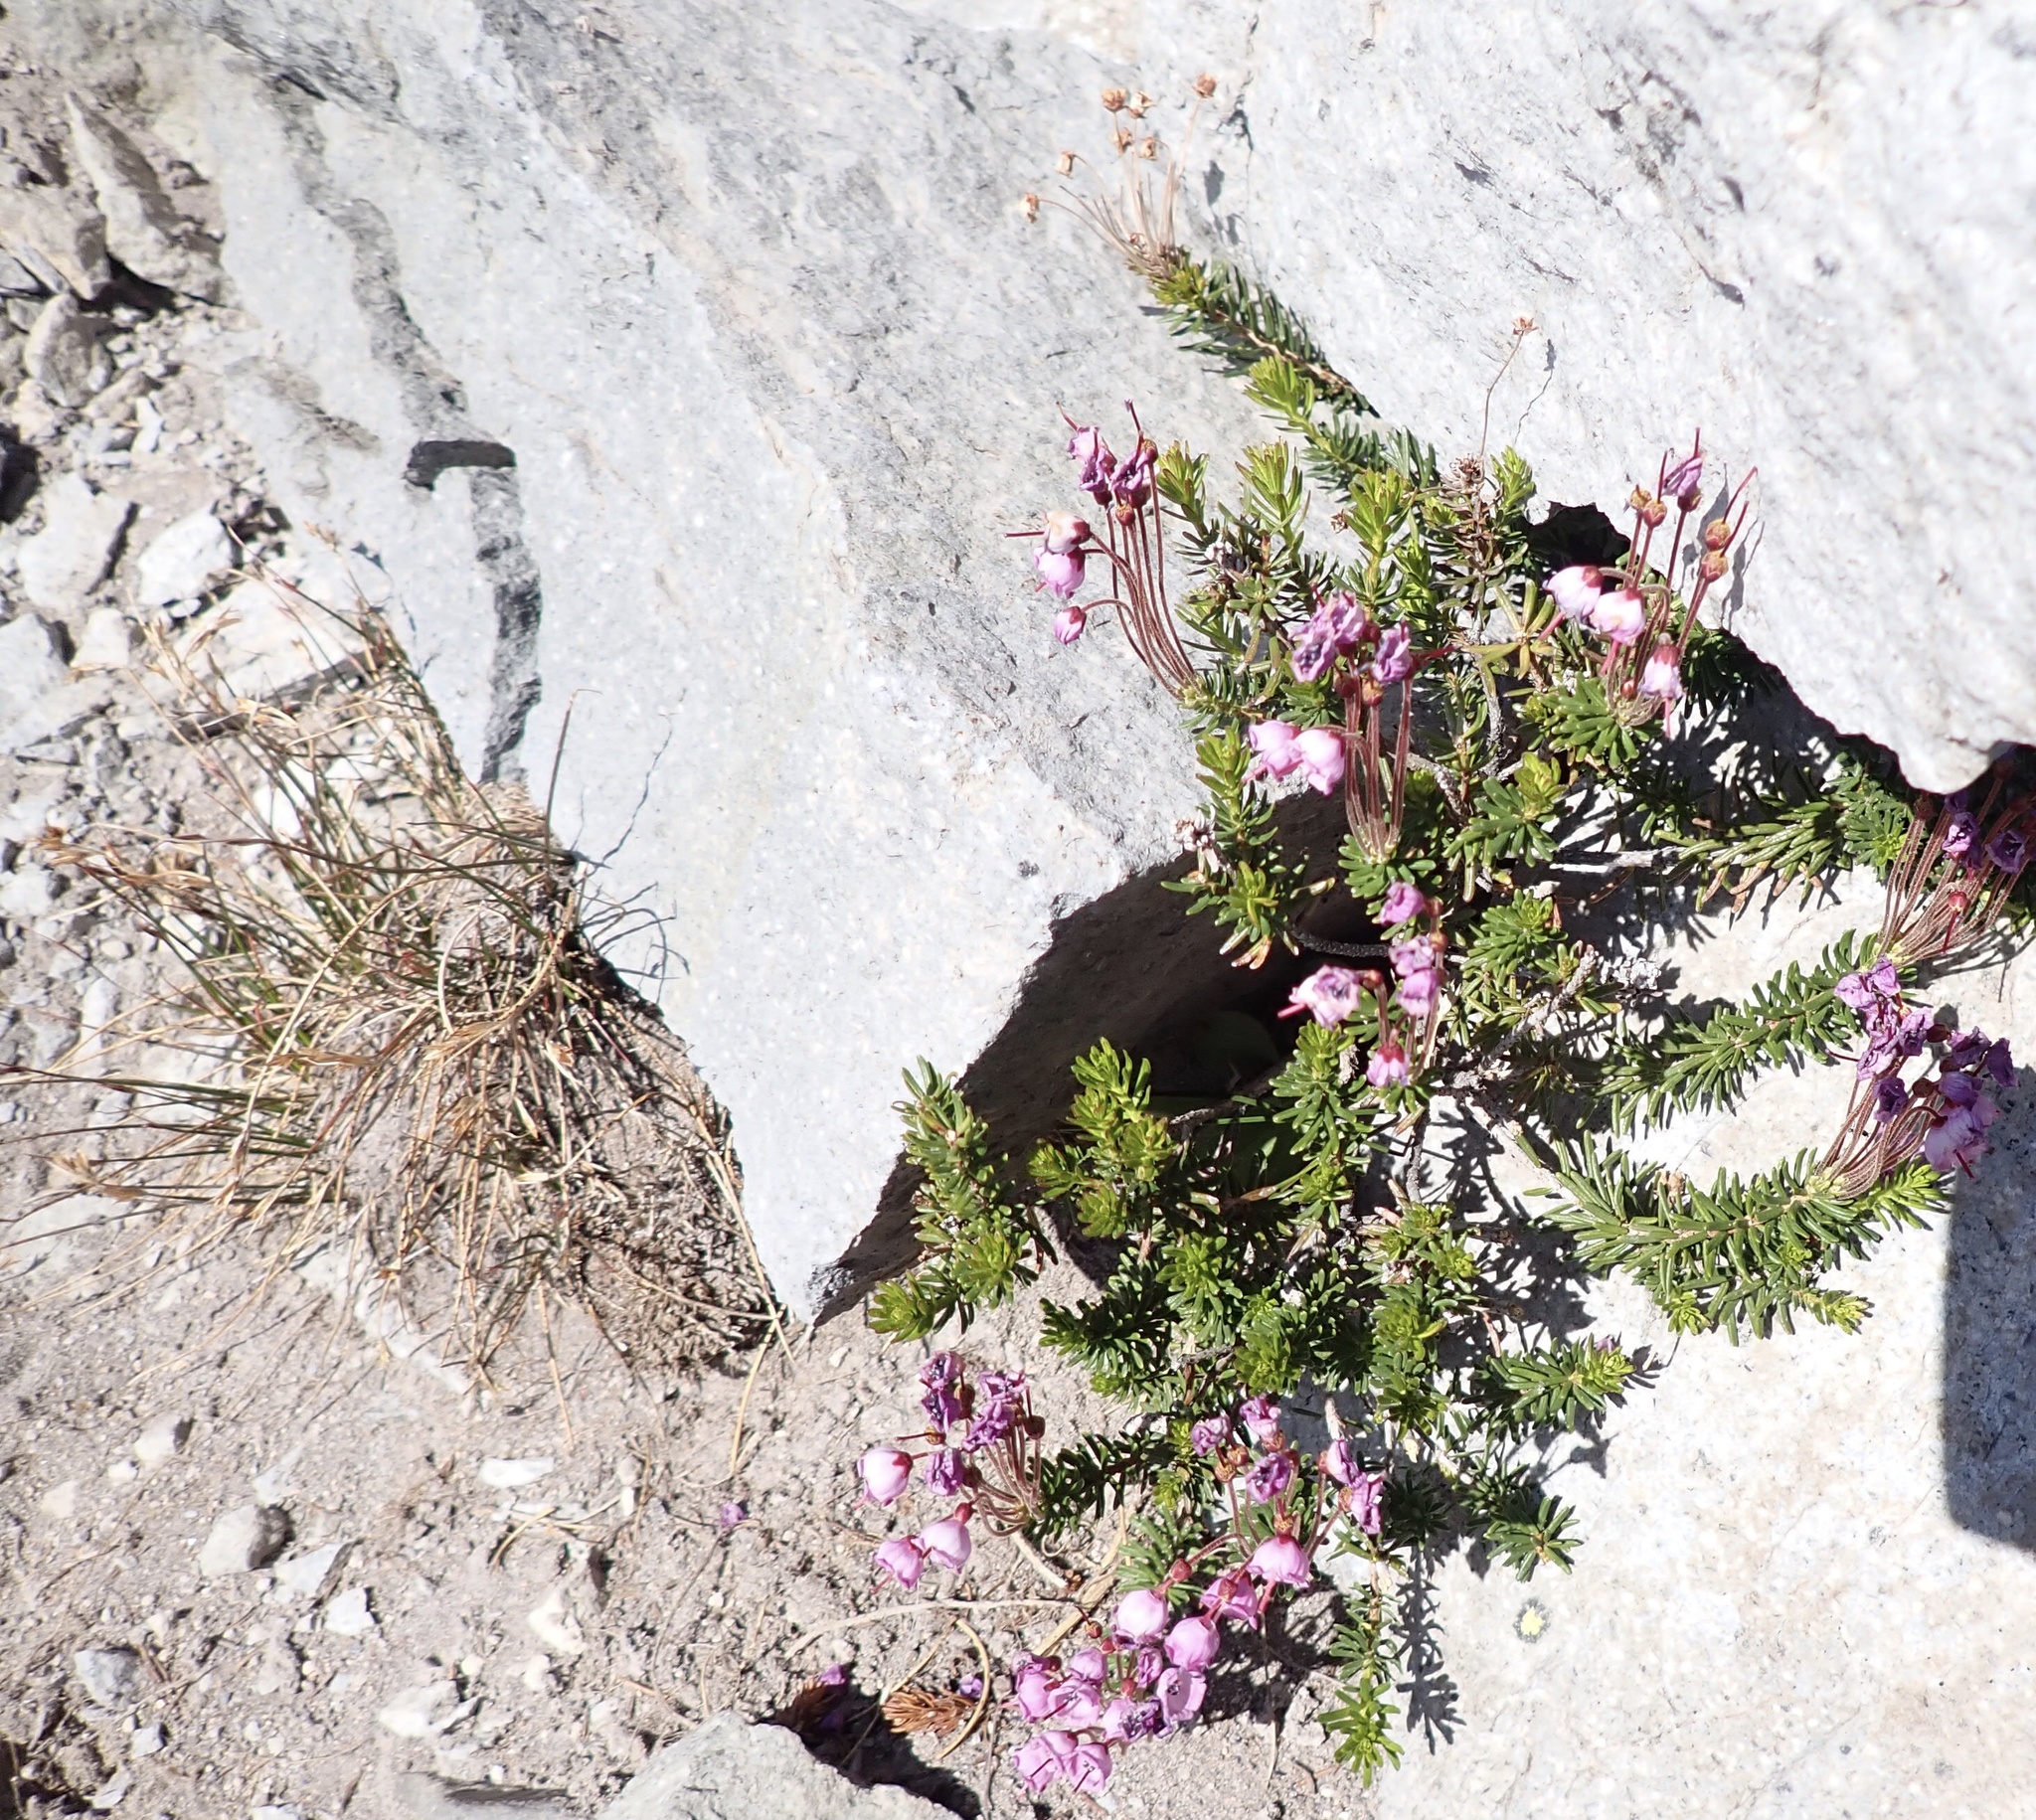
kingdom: Plantae
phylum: Tracheophyta
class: Magnoliopsida
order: Ericales
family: Ericaceae
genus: Phyllodoce
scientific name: Phyllodoce empetriformis
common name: Pink mountain heather
